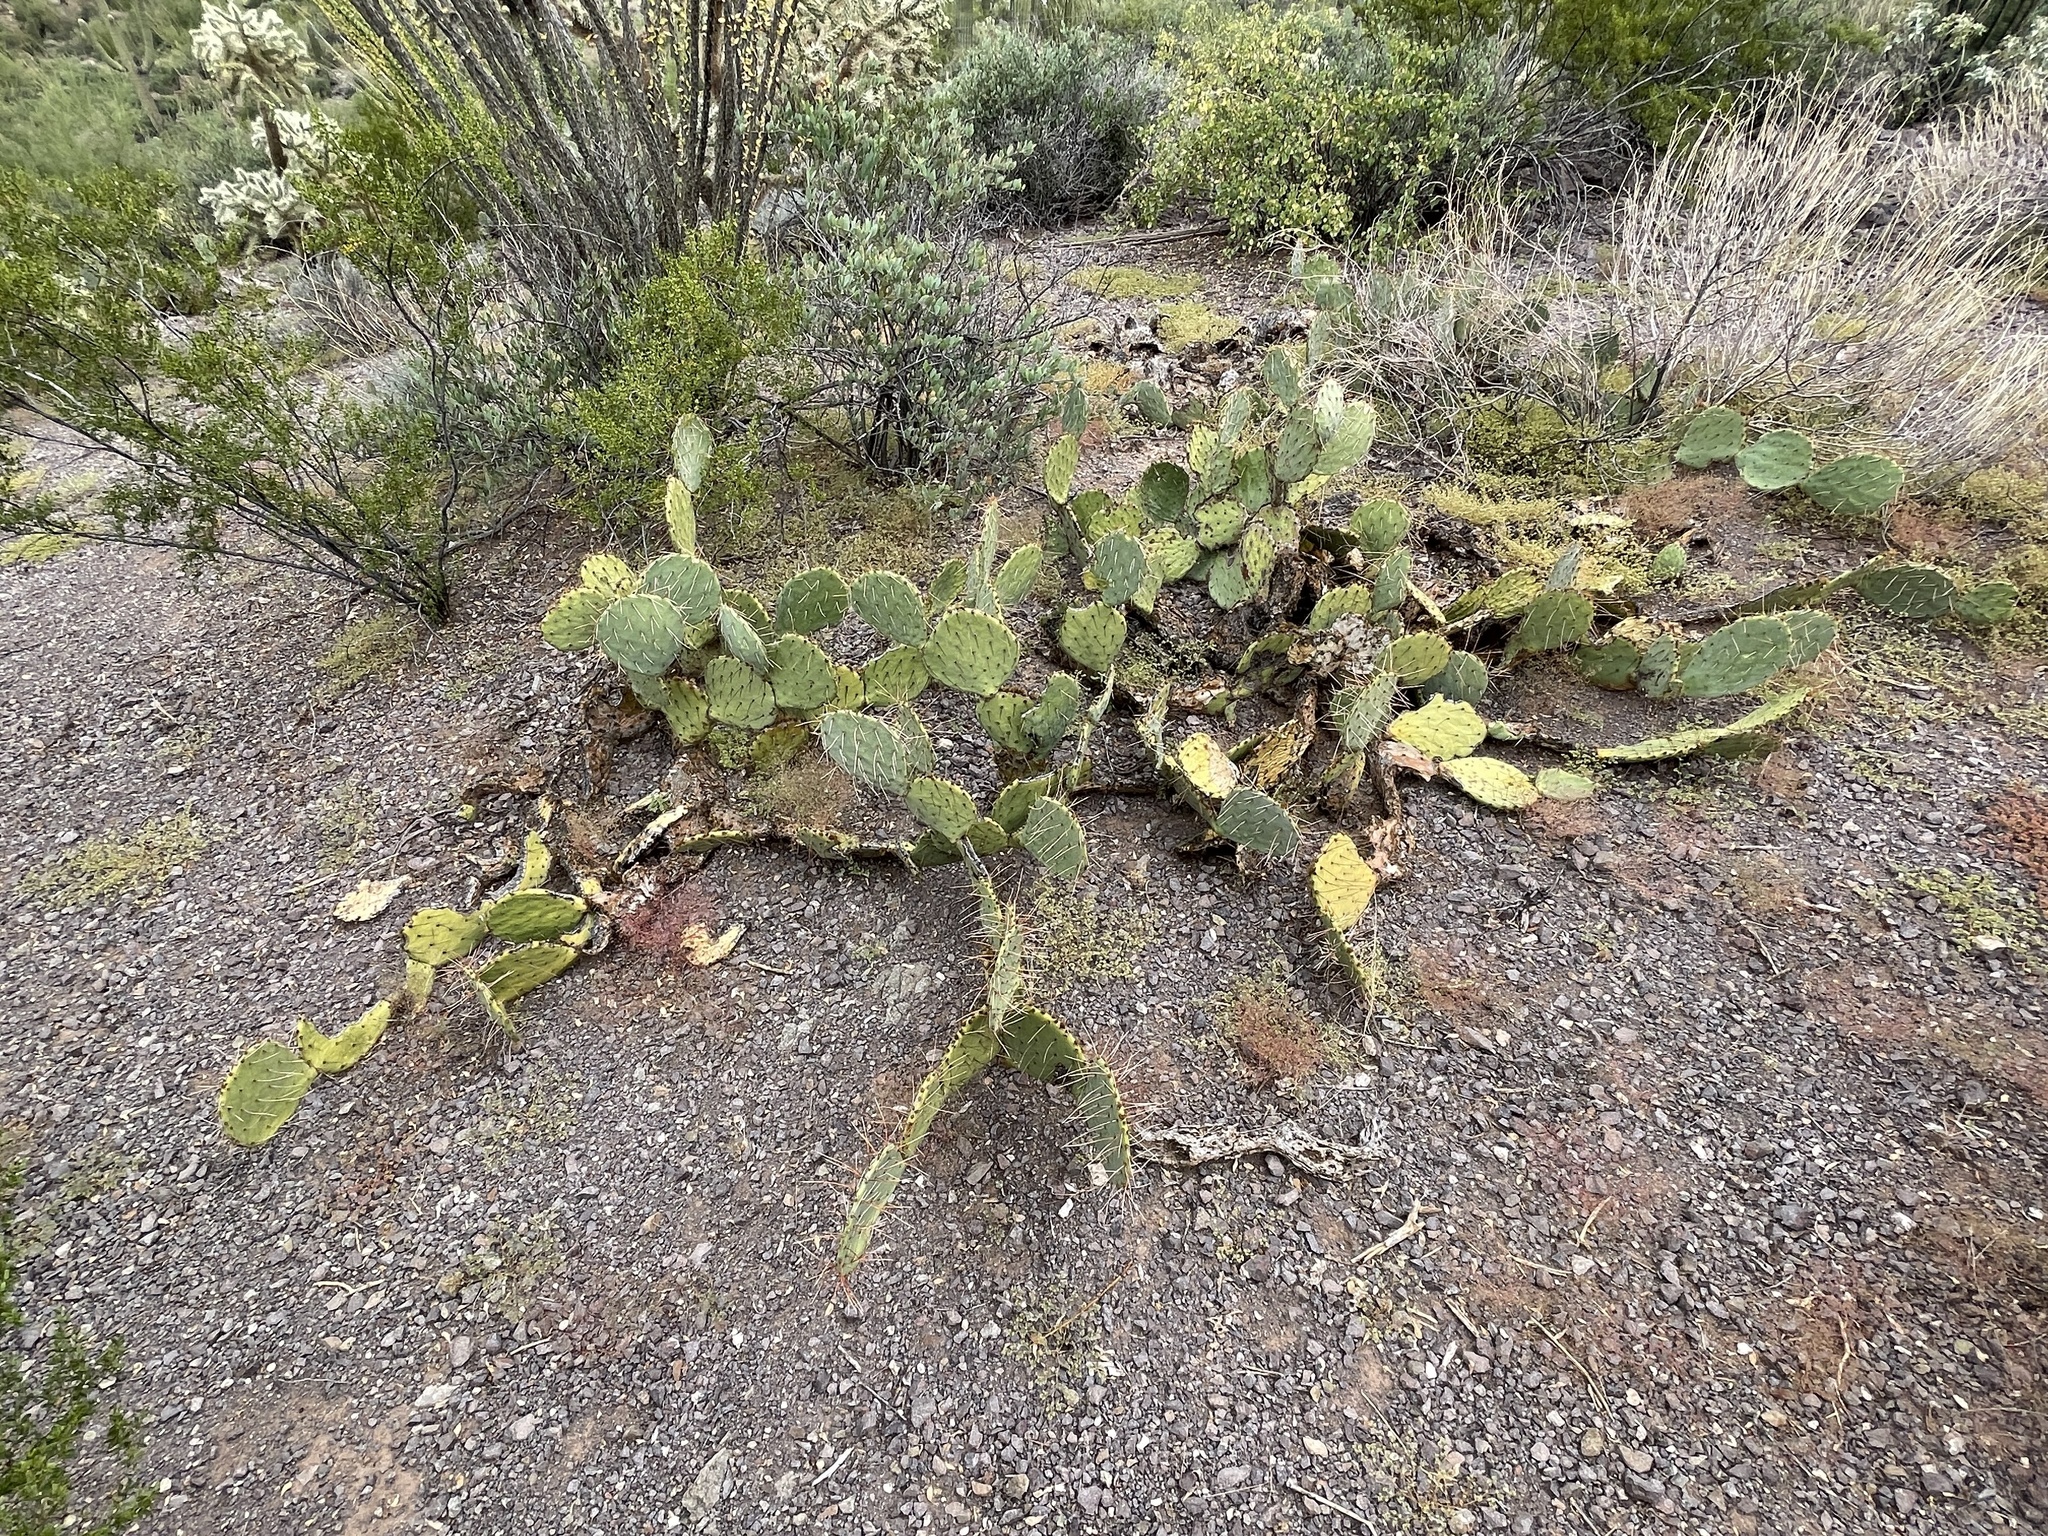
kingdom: Plantae
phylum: Tracheophyta
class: Magnoliopsida
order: Caryophyllales
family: Cactaceae
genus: Opuntia
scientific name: Opuntia engelmannii
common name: Cactus-apple
